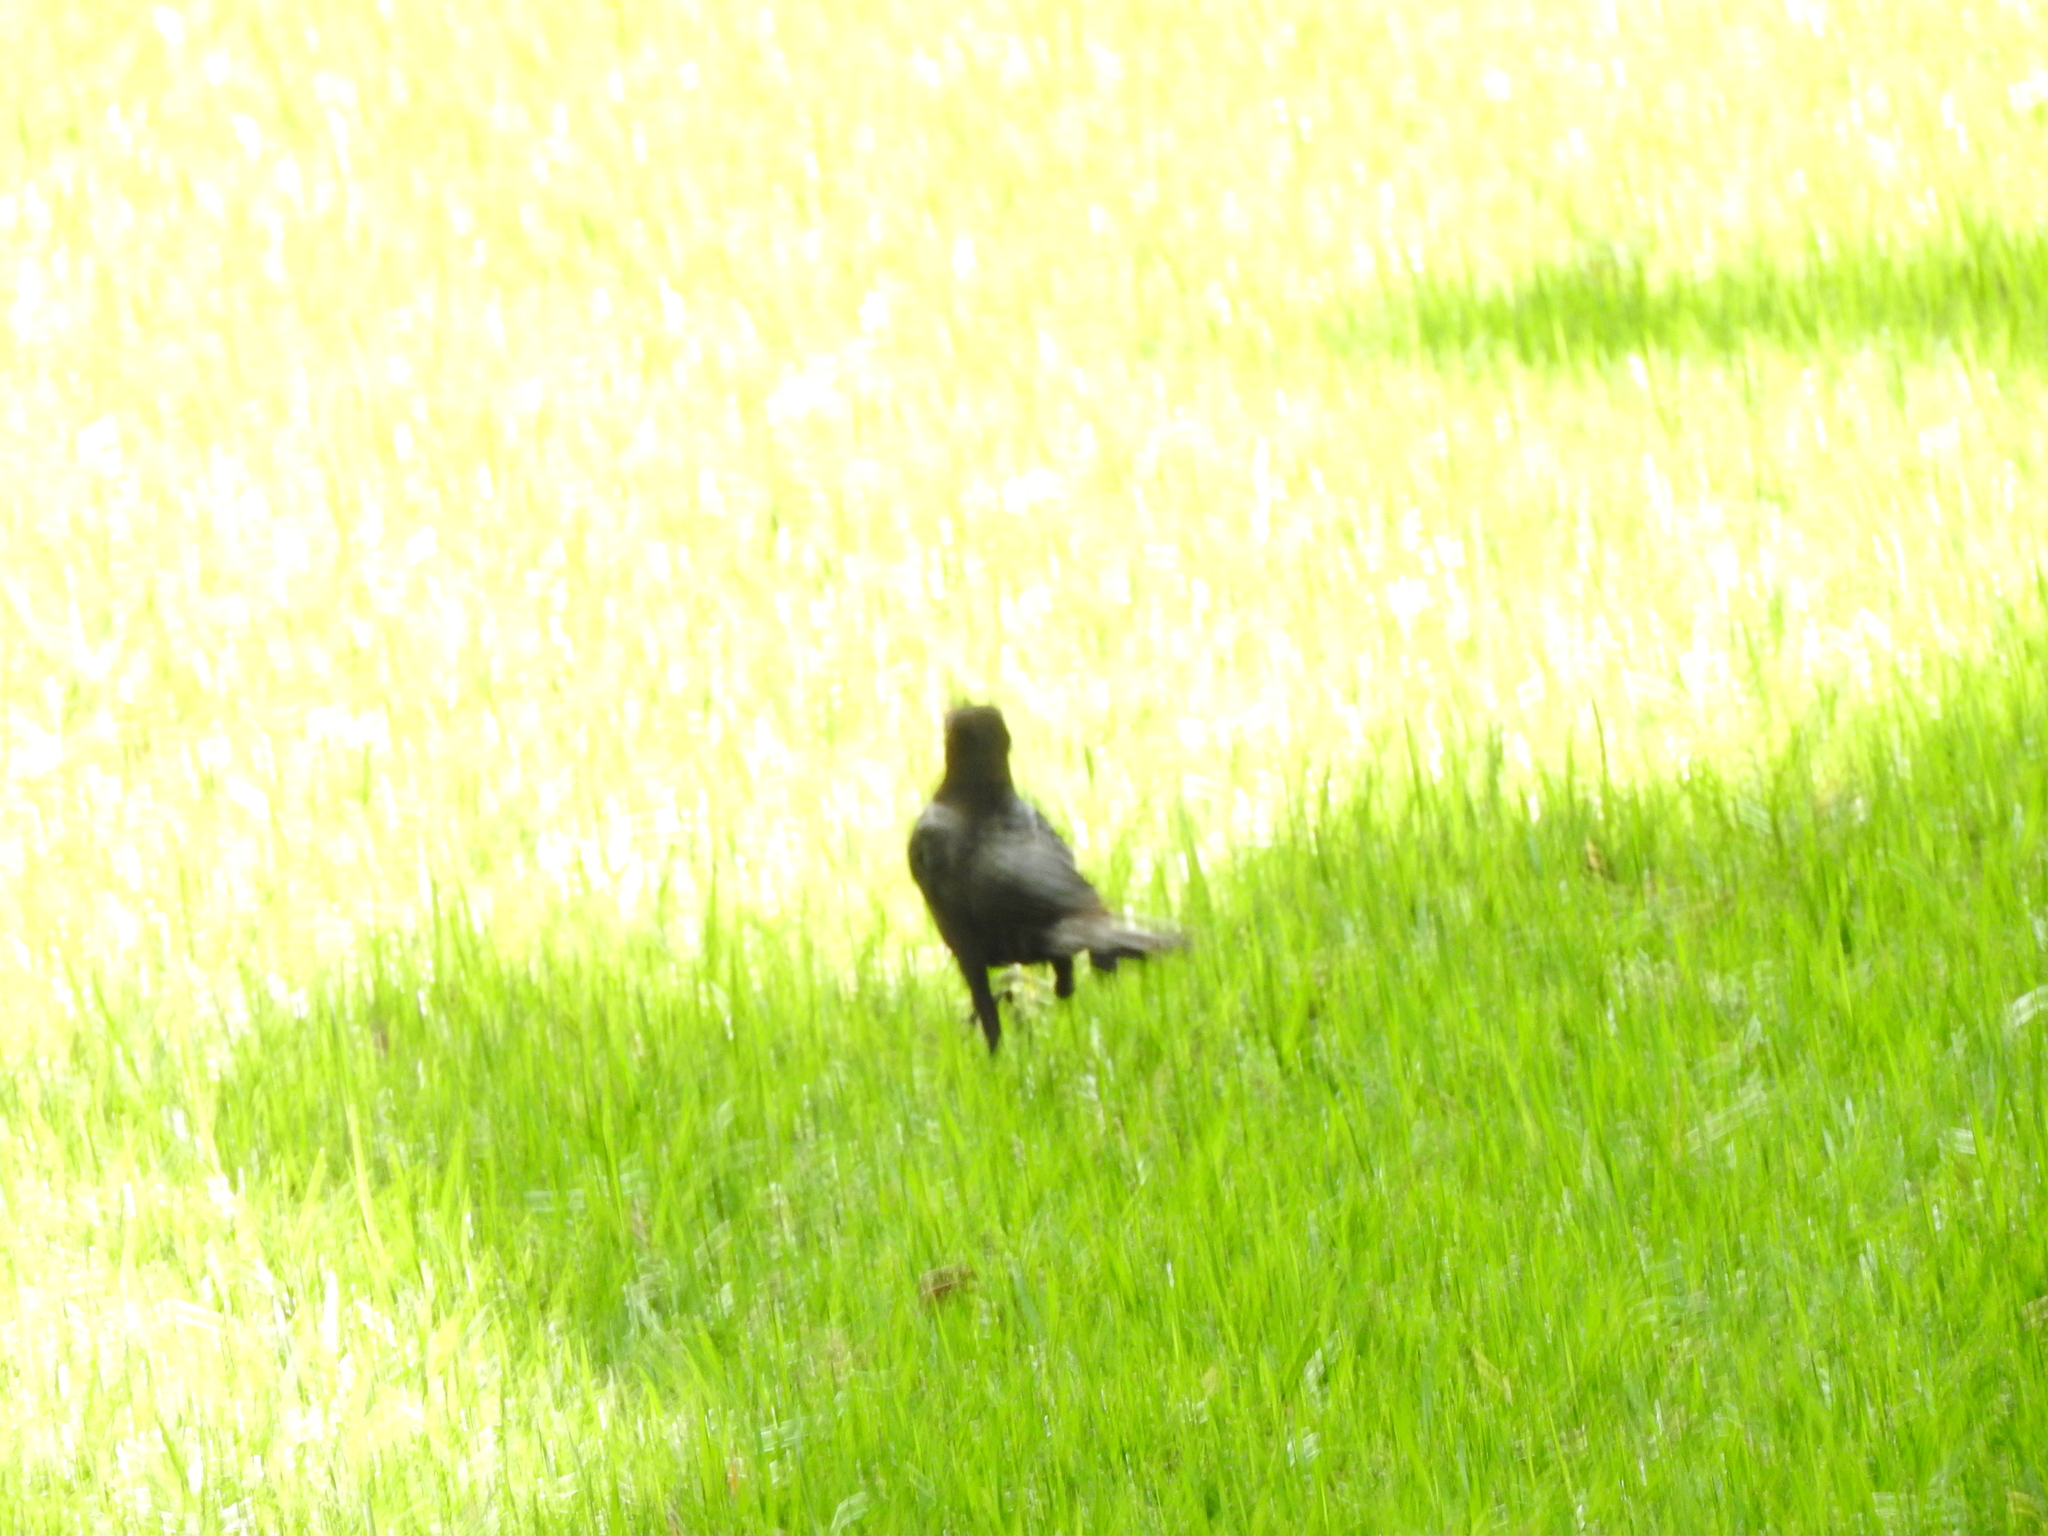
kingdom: Animalia
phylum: Chordata
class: Aves
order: Passeriformes
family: Icteridae
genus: Quiscalus
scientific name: Quiscalus mexicanus
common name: Great-tailed grackle
